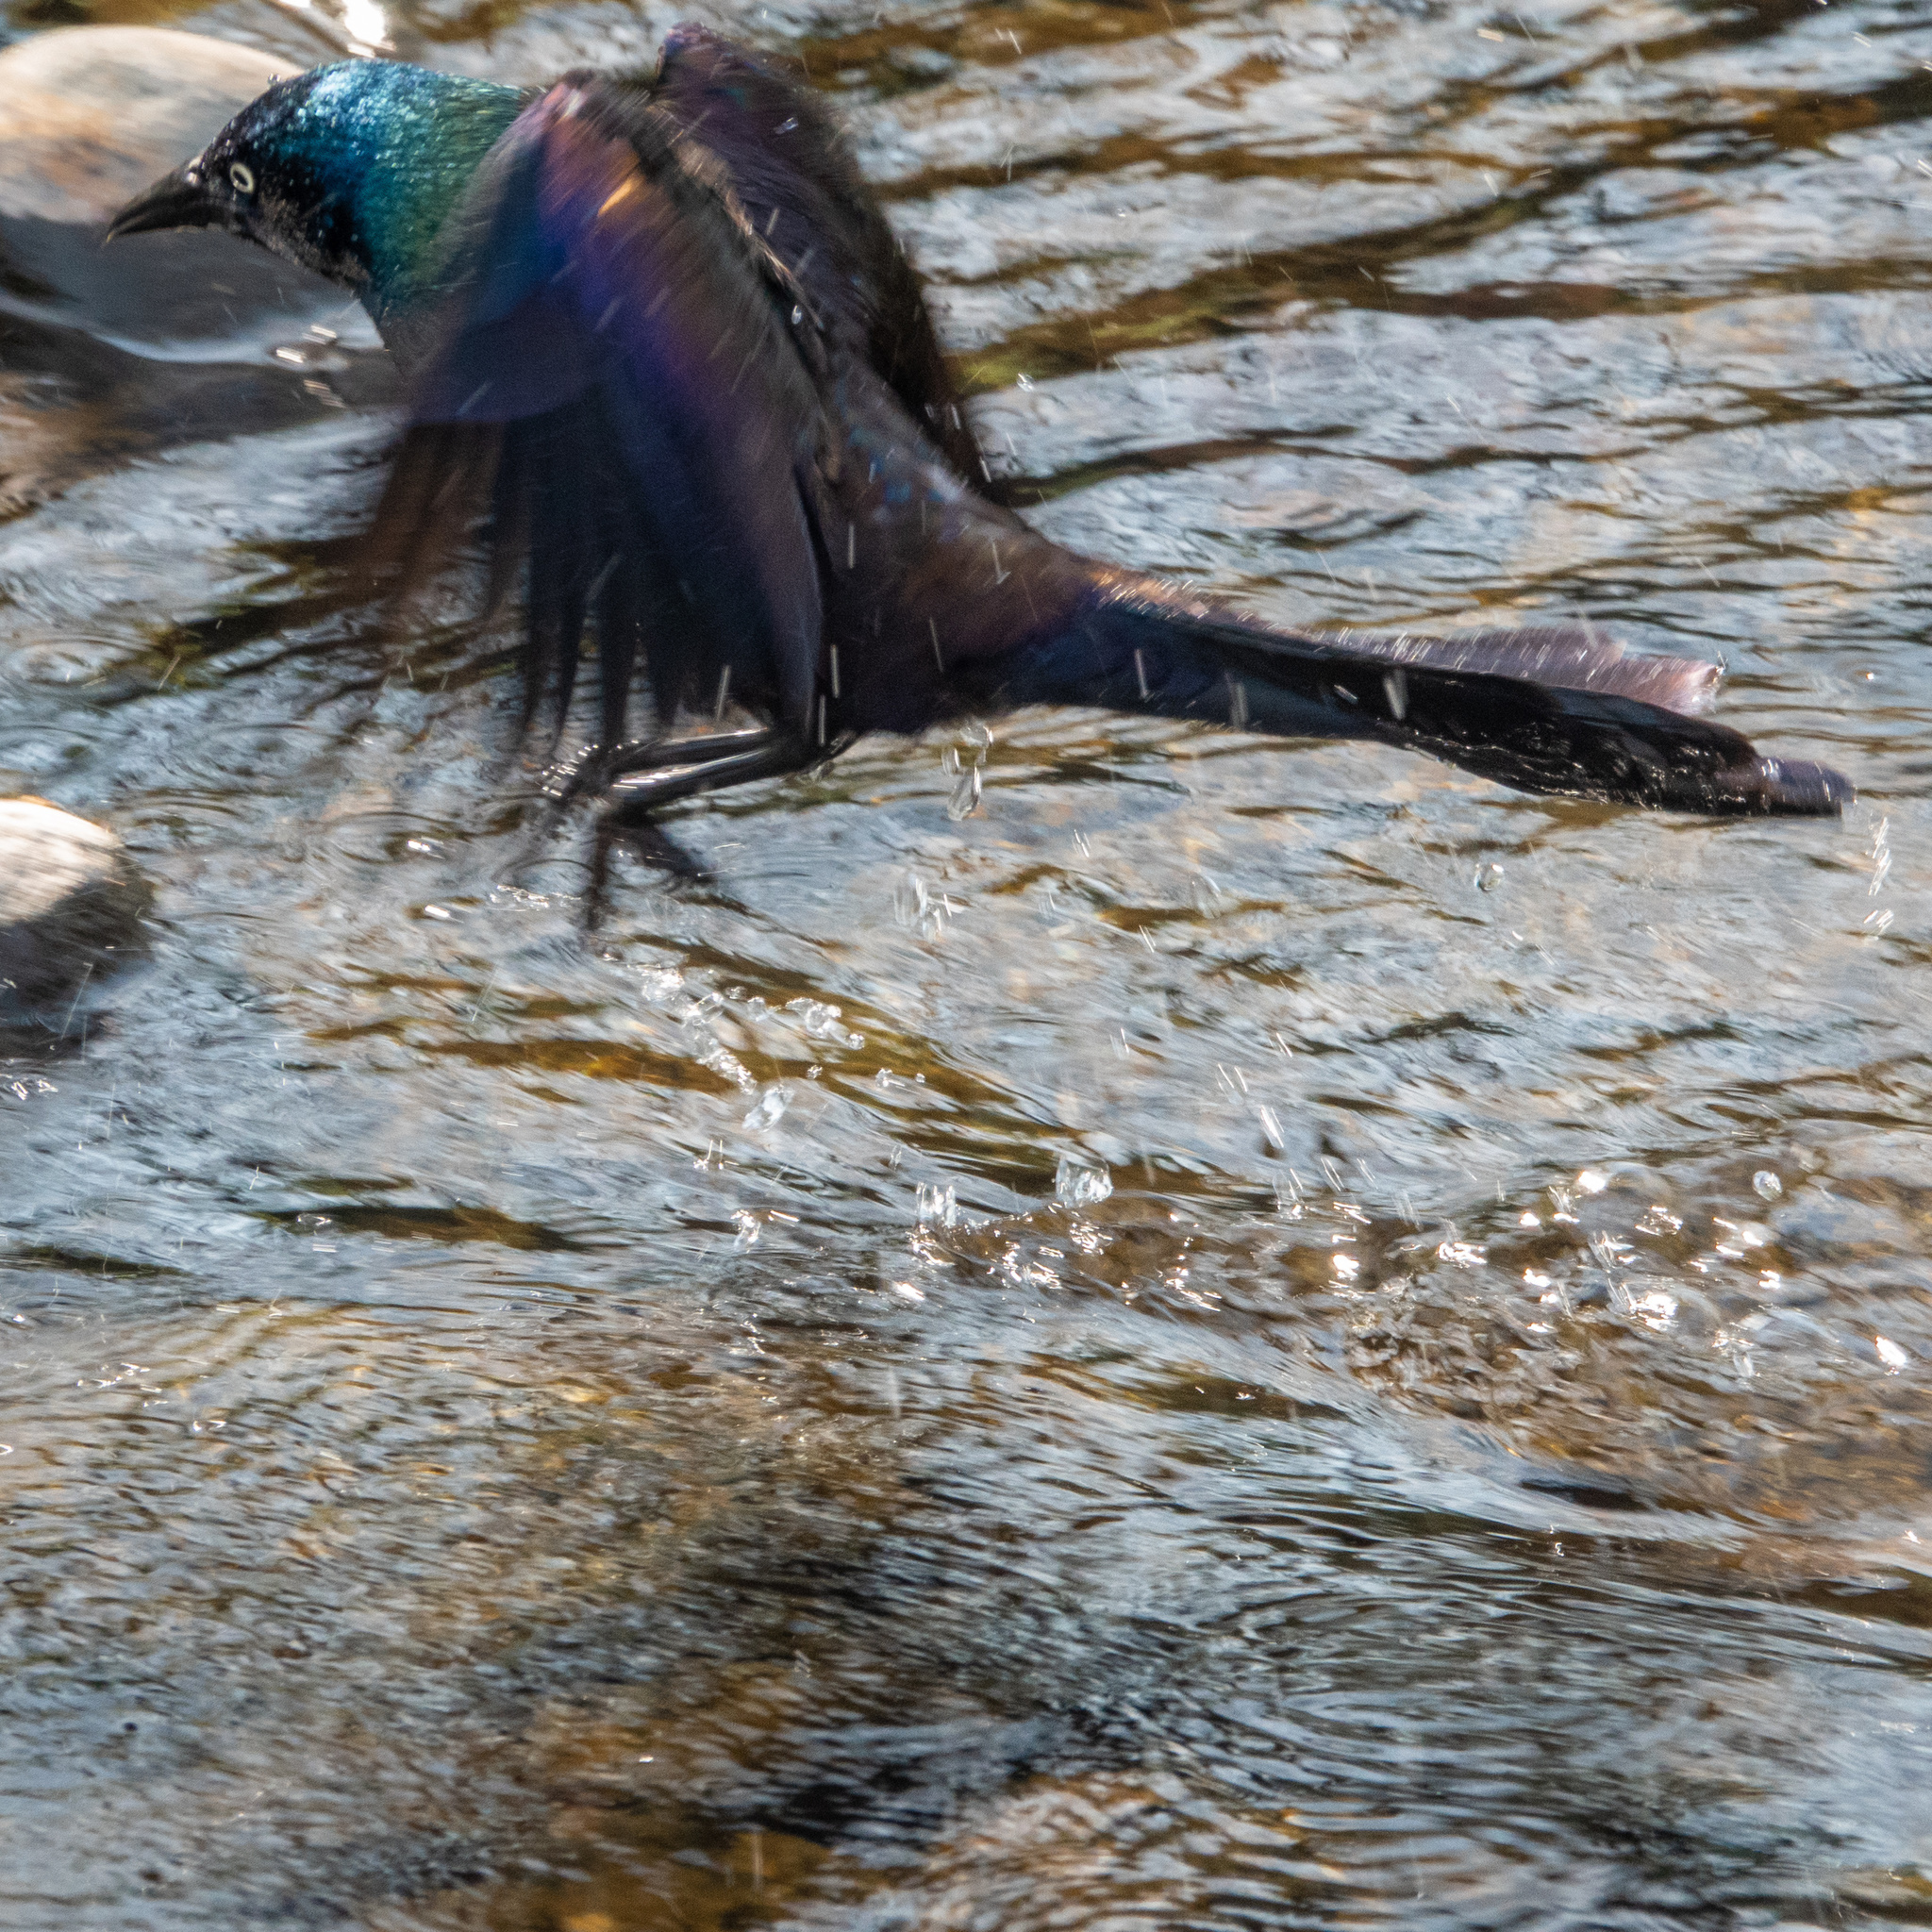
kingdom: Animalia
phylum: Chordata
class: Aves
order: Passeriformes
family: Icteridae
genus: Quiscalus
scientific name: Quiscalus quiscula
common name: Common grackle
